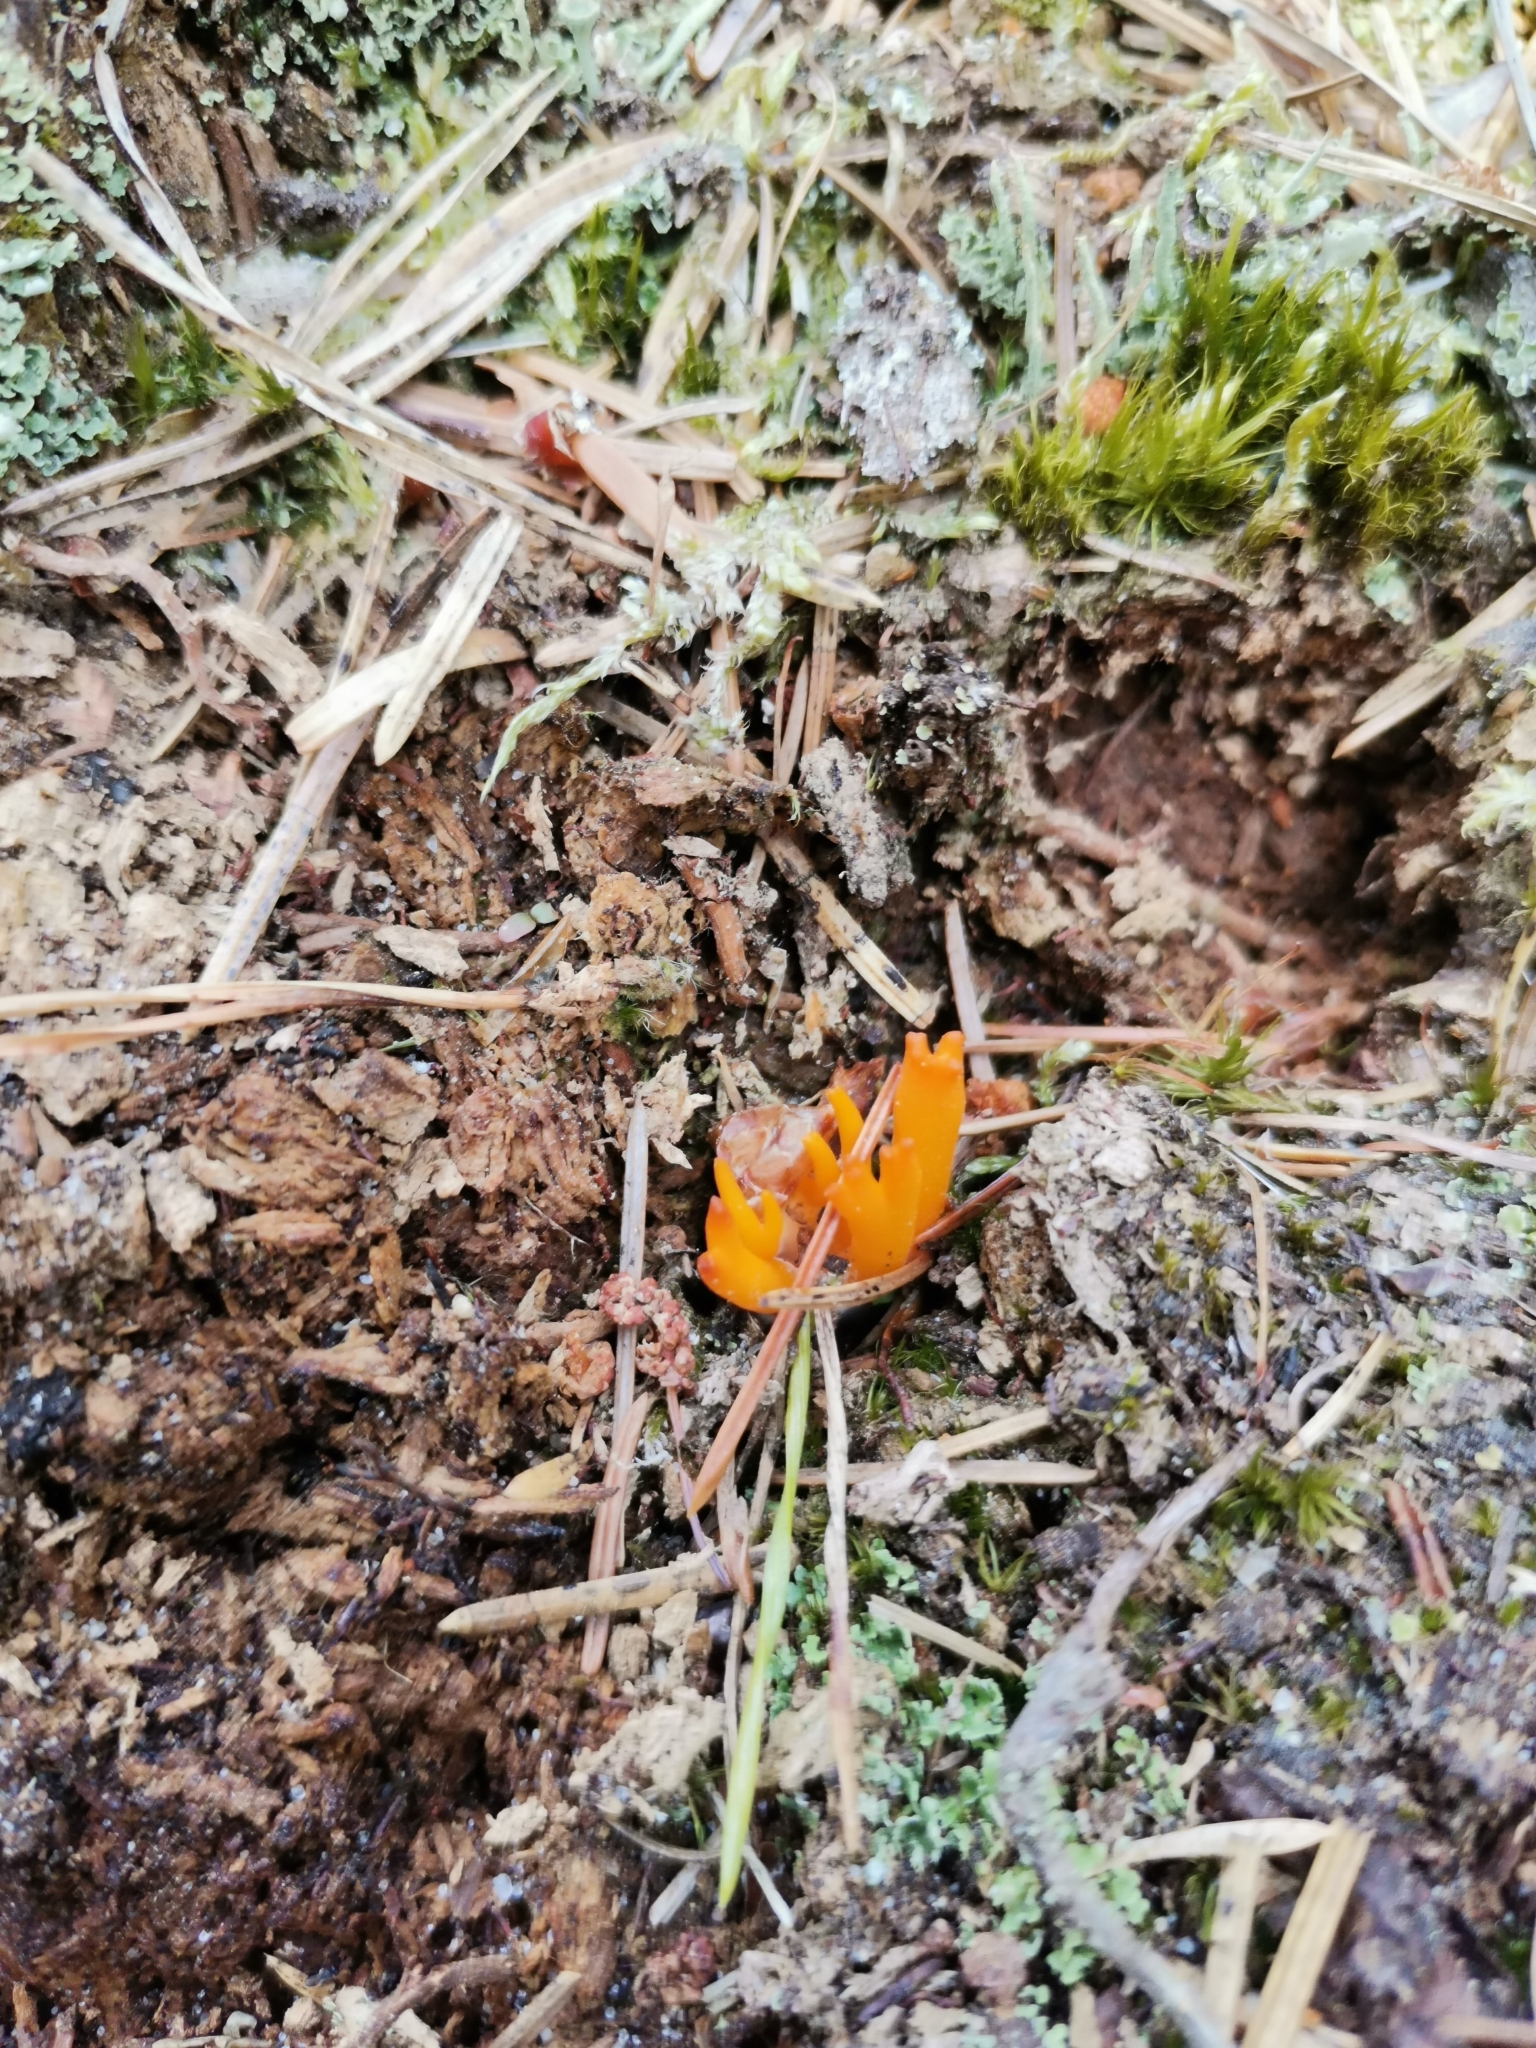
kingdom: Fungi
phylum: Basidiomycota
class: Dacrymycetes
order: Dacrymycetales
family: Dacrymycetaceae
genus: Calocera
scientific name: Calocera viscosa
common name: Yellow stagshorn
